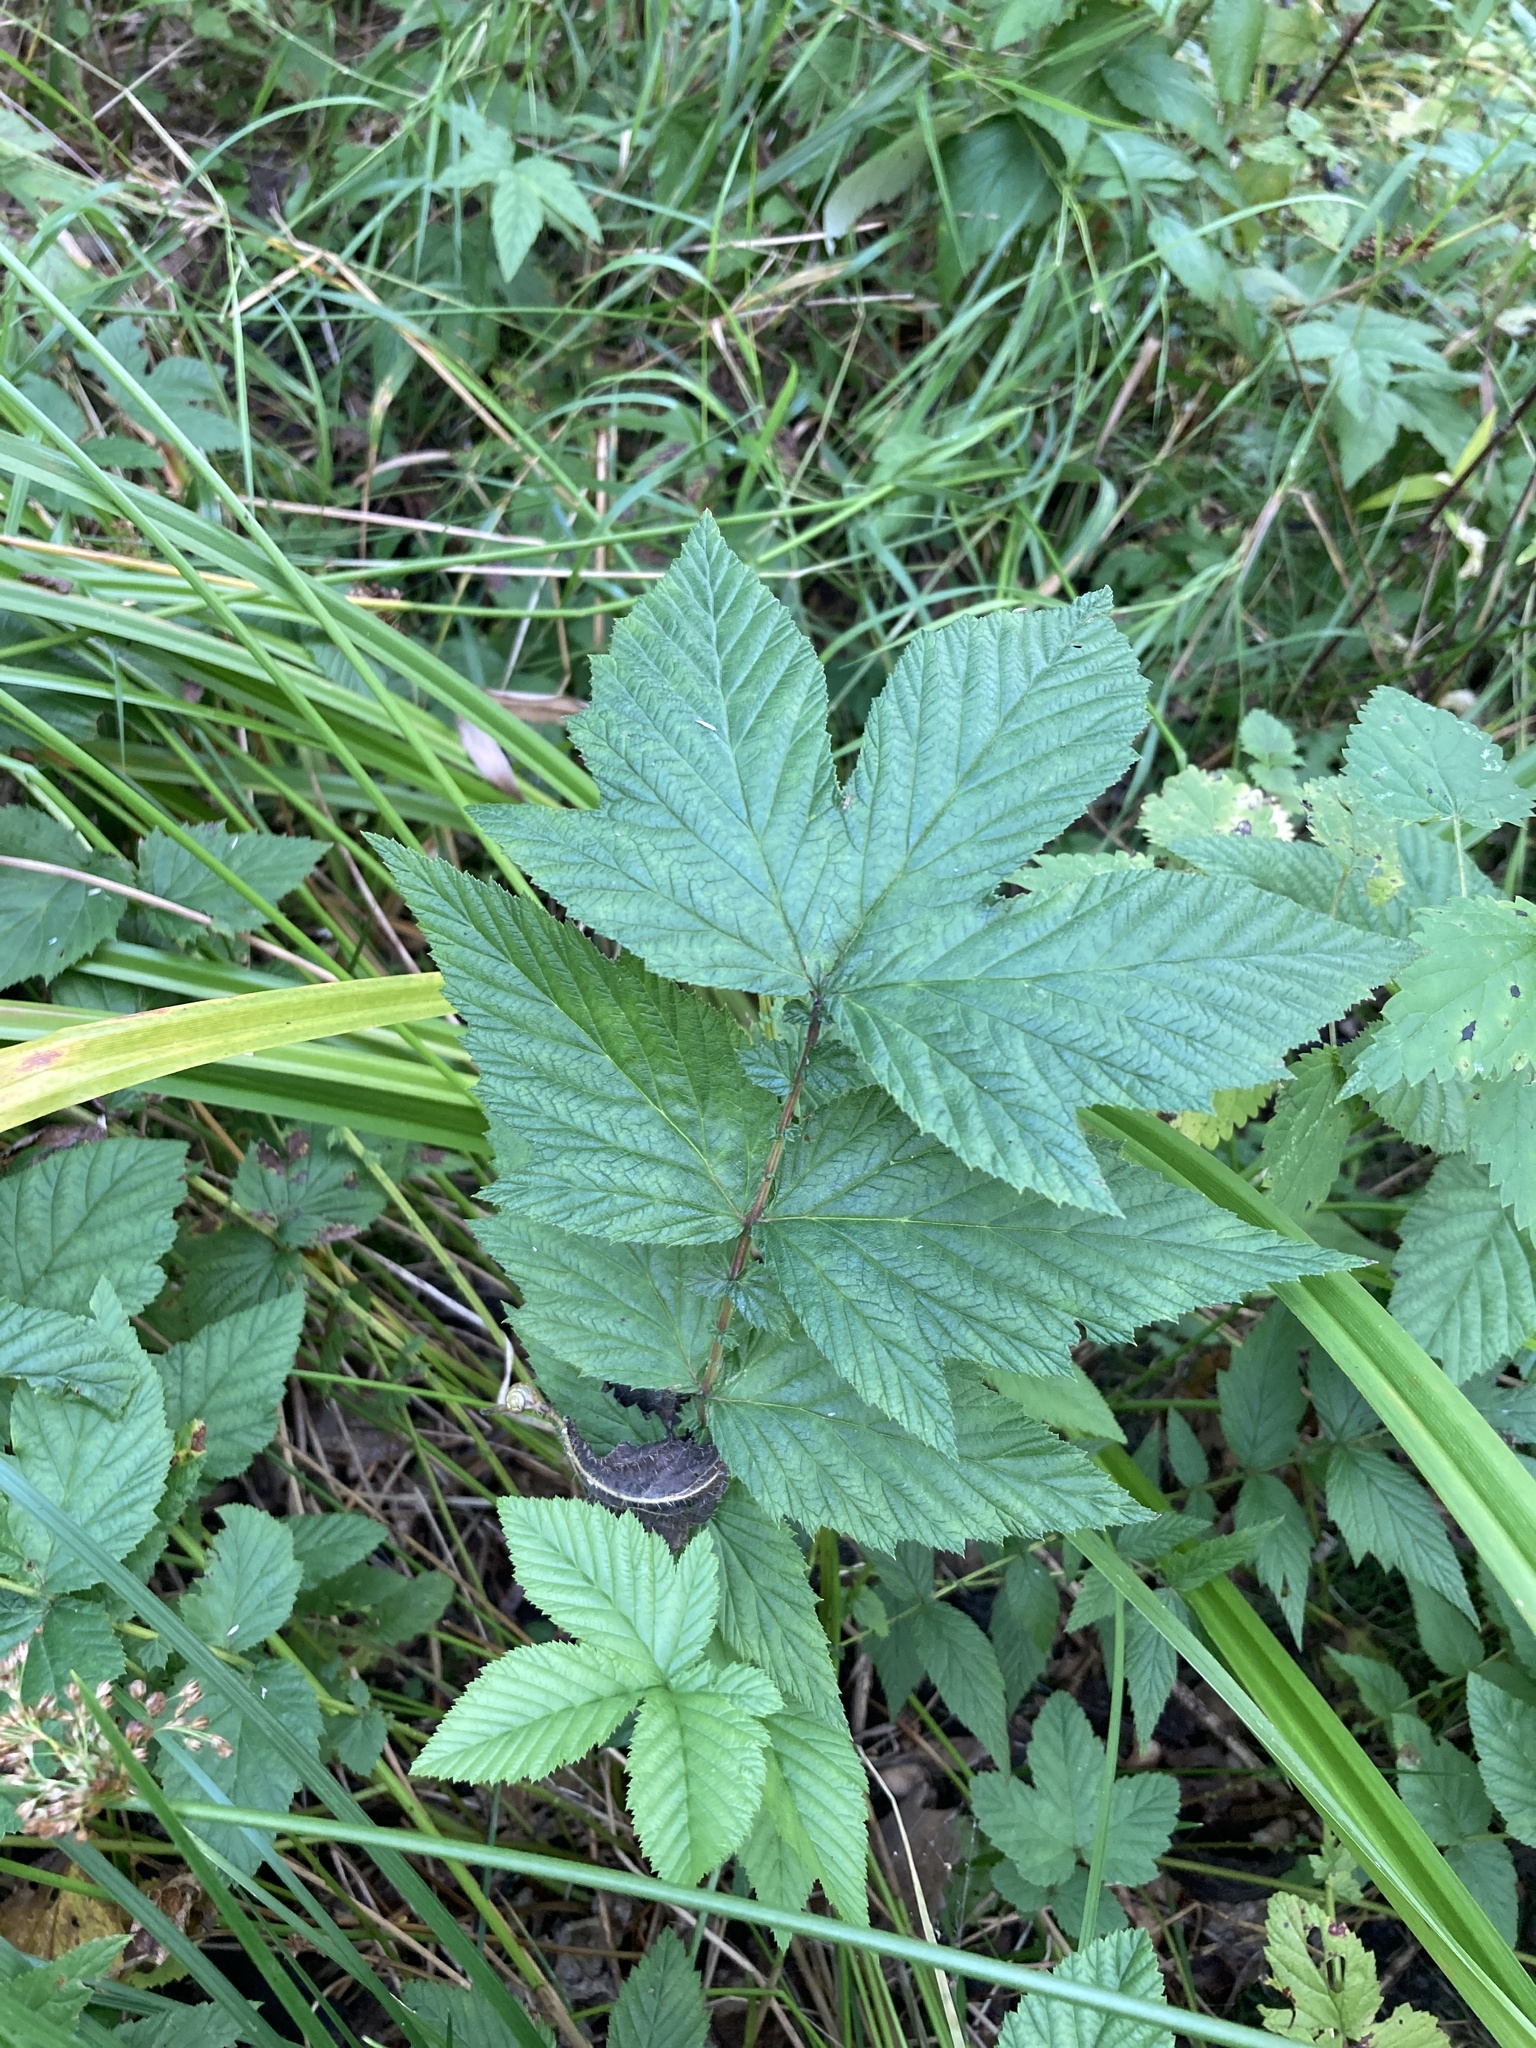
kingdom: Plantae
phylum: Tracheophyta
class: Magnoliopsida
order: Rosales
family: Rosaceae
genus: Filipendula
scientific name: Filipendula ulmaria
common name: Meadowsweet
